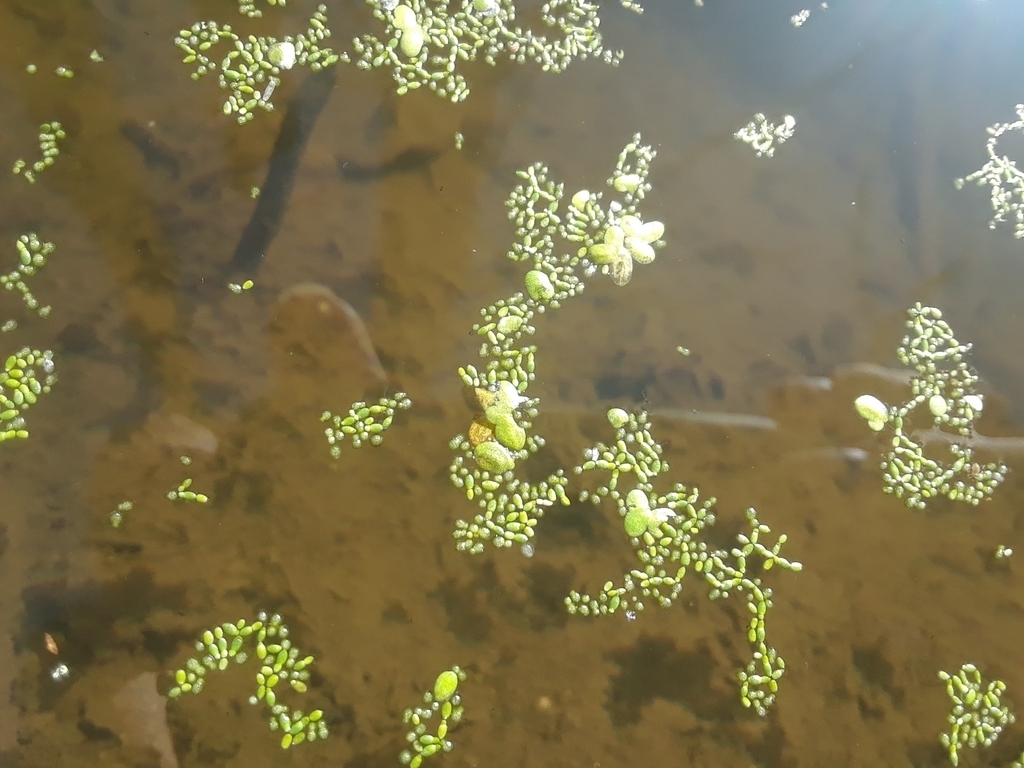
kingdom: Plantae
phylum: Tracheophyta
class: Liliopsida
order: Alismatales
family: Araceae
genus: Wolffia
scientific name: Wolffia columbiana
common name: Columbia watermeal
